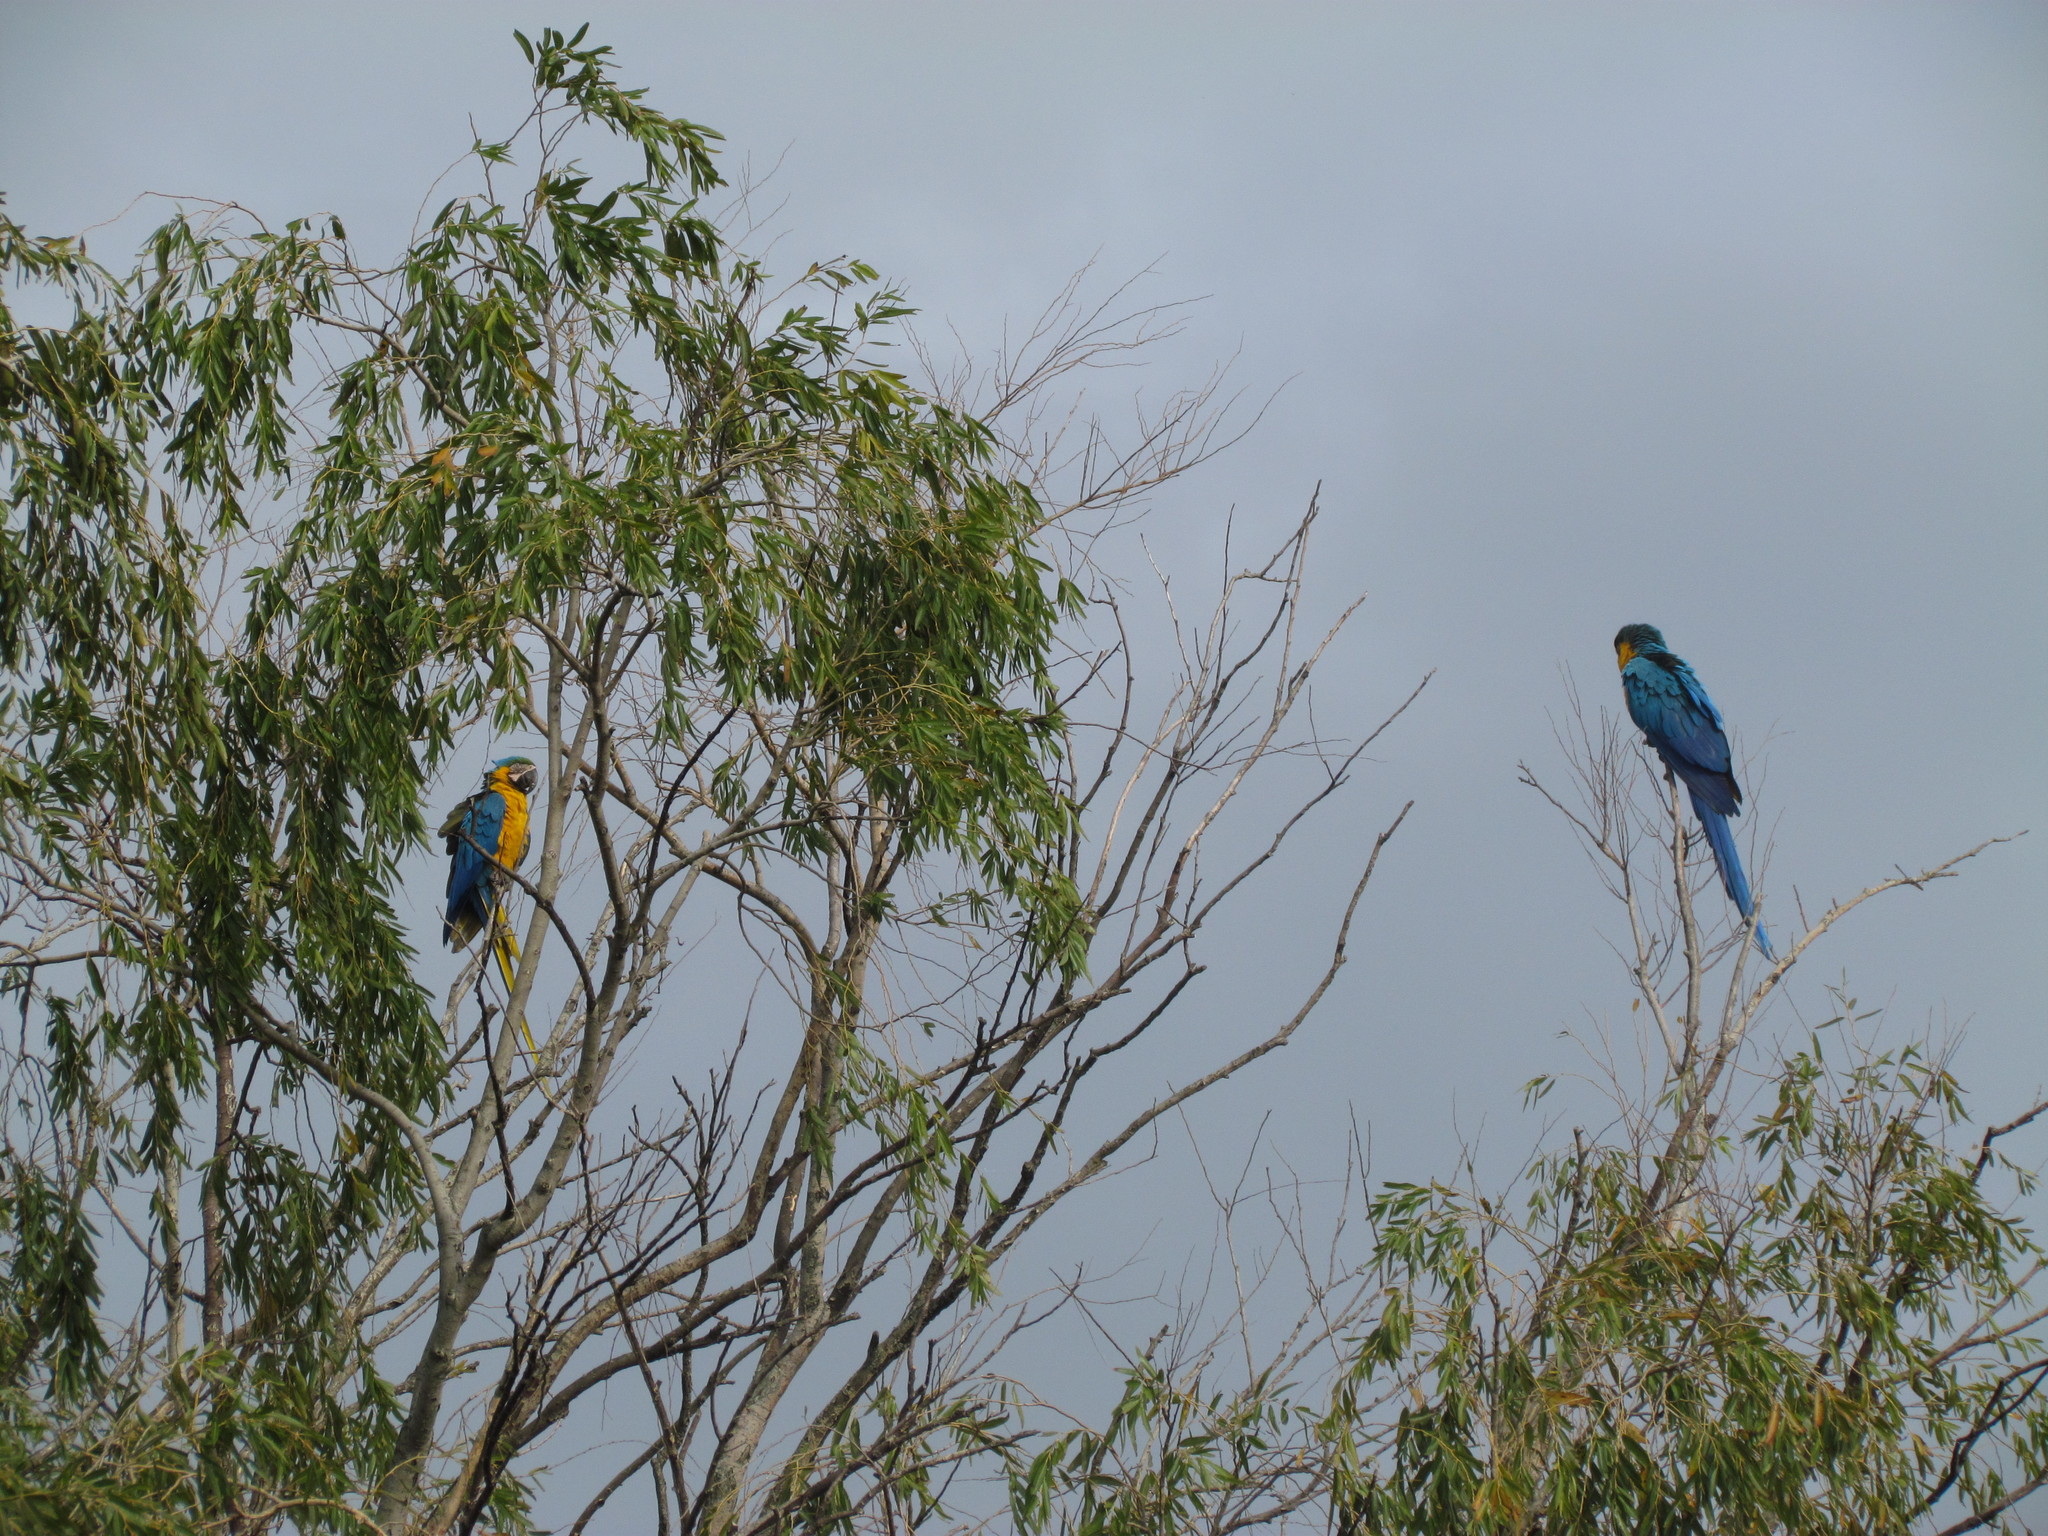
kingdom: Animalia
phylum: Chordata
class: Aves
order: Psittaciformes
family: Psittacidae
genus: Ara
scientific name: Ara ararauna
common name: Blue-and-yellow macaw
